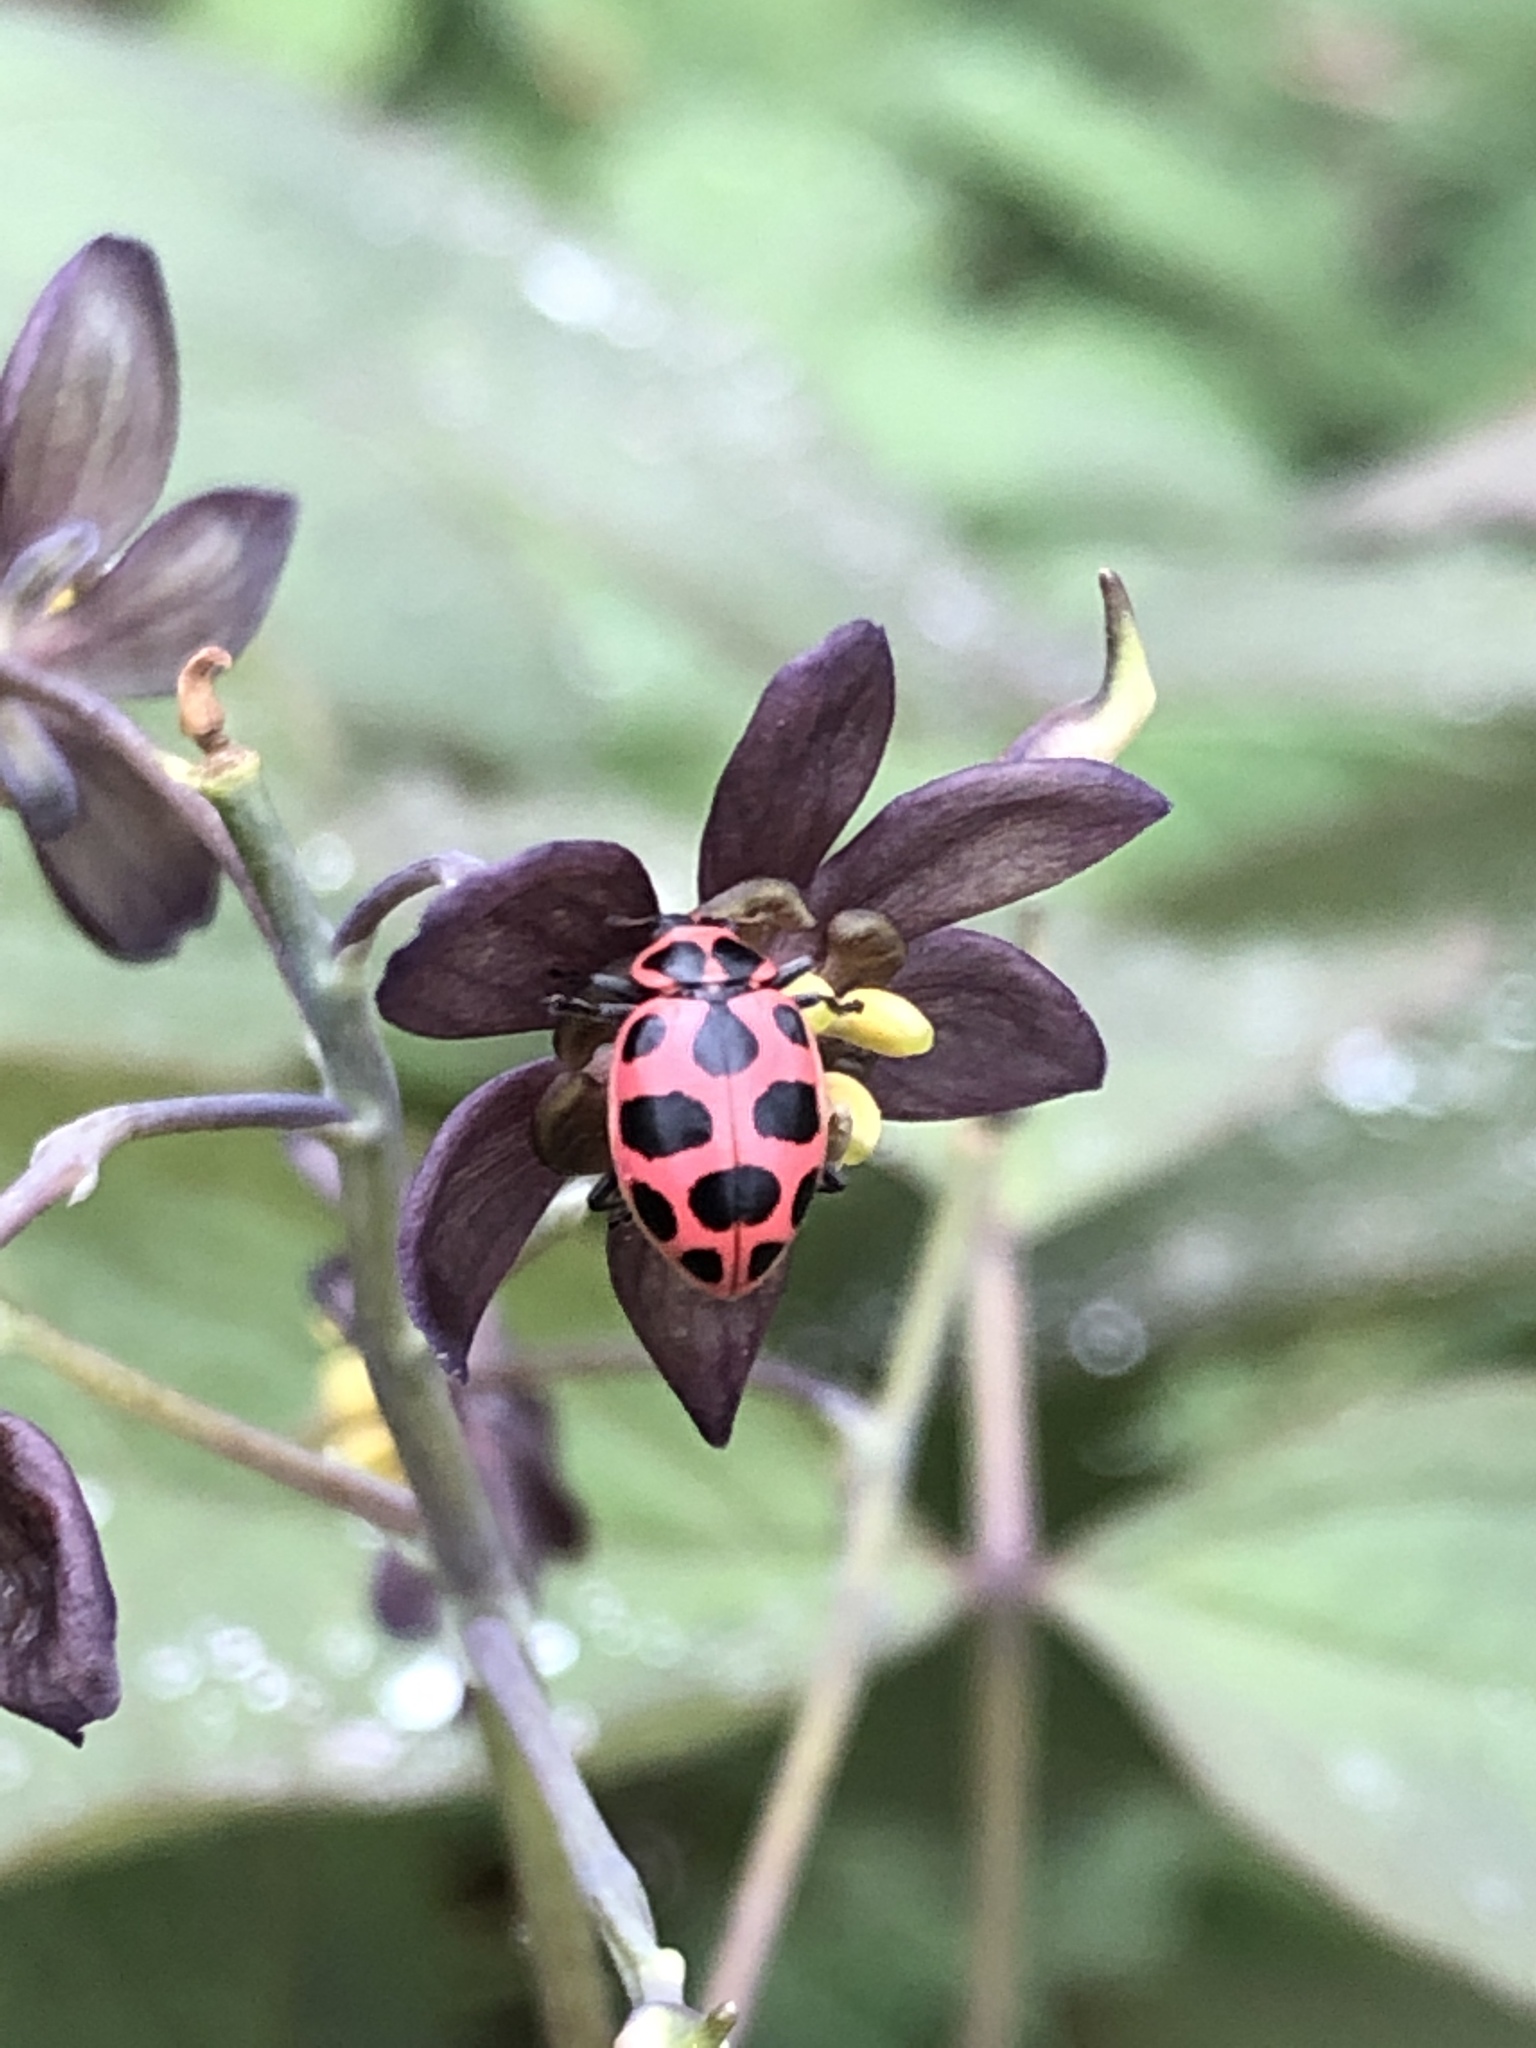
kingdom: Animalia
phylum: Arthropoda
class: Insecta
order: Coleoptera
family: Coccinellidae
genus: Coleomegilla
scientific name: Coleomegilla maculata
